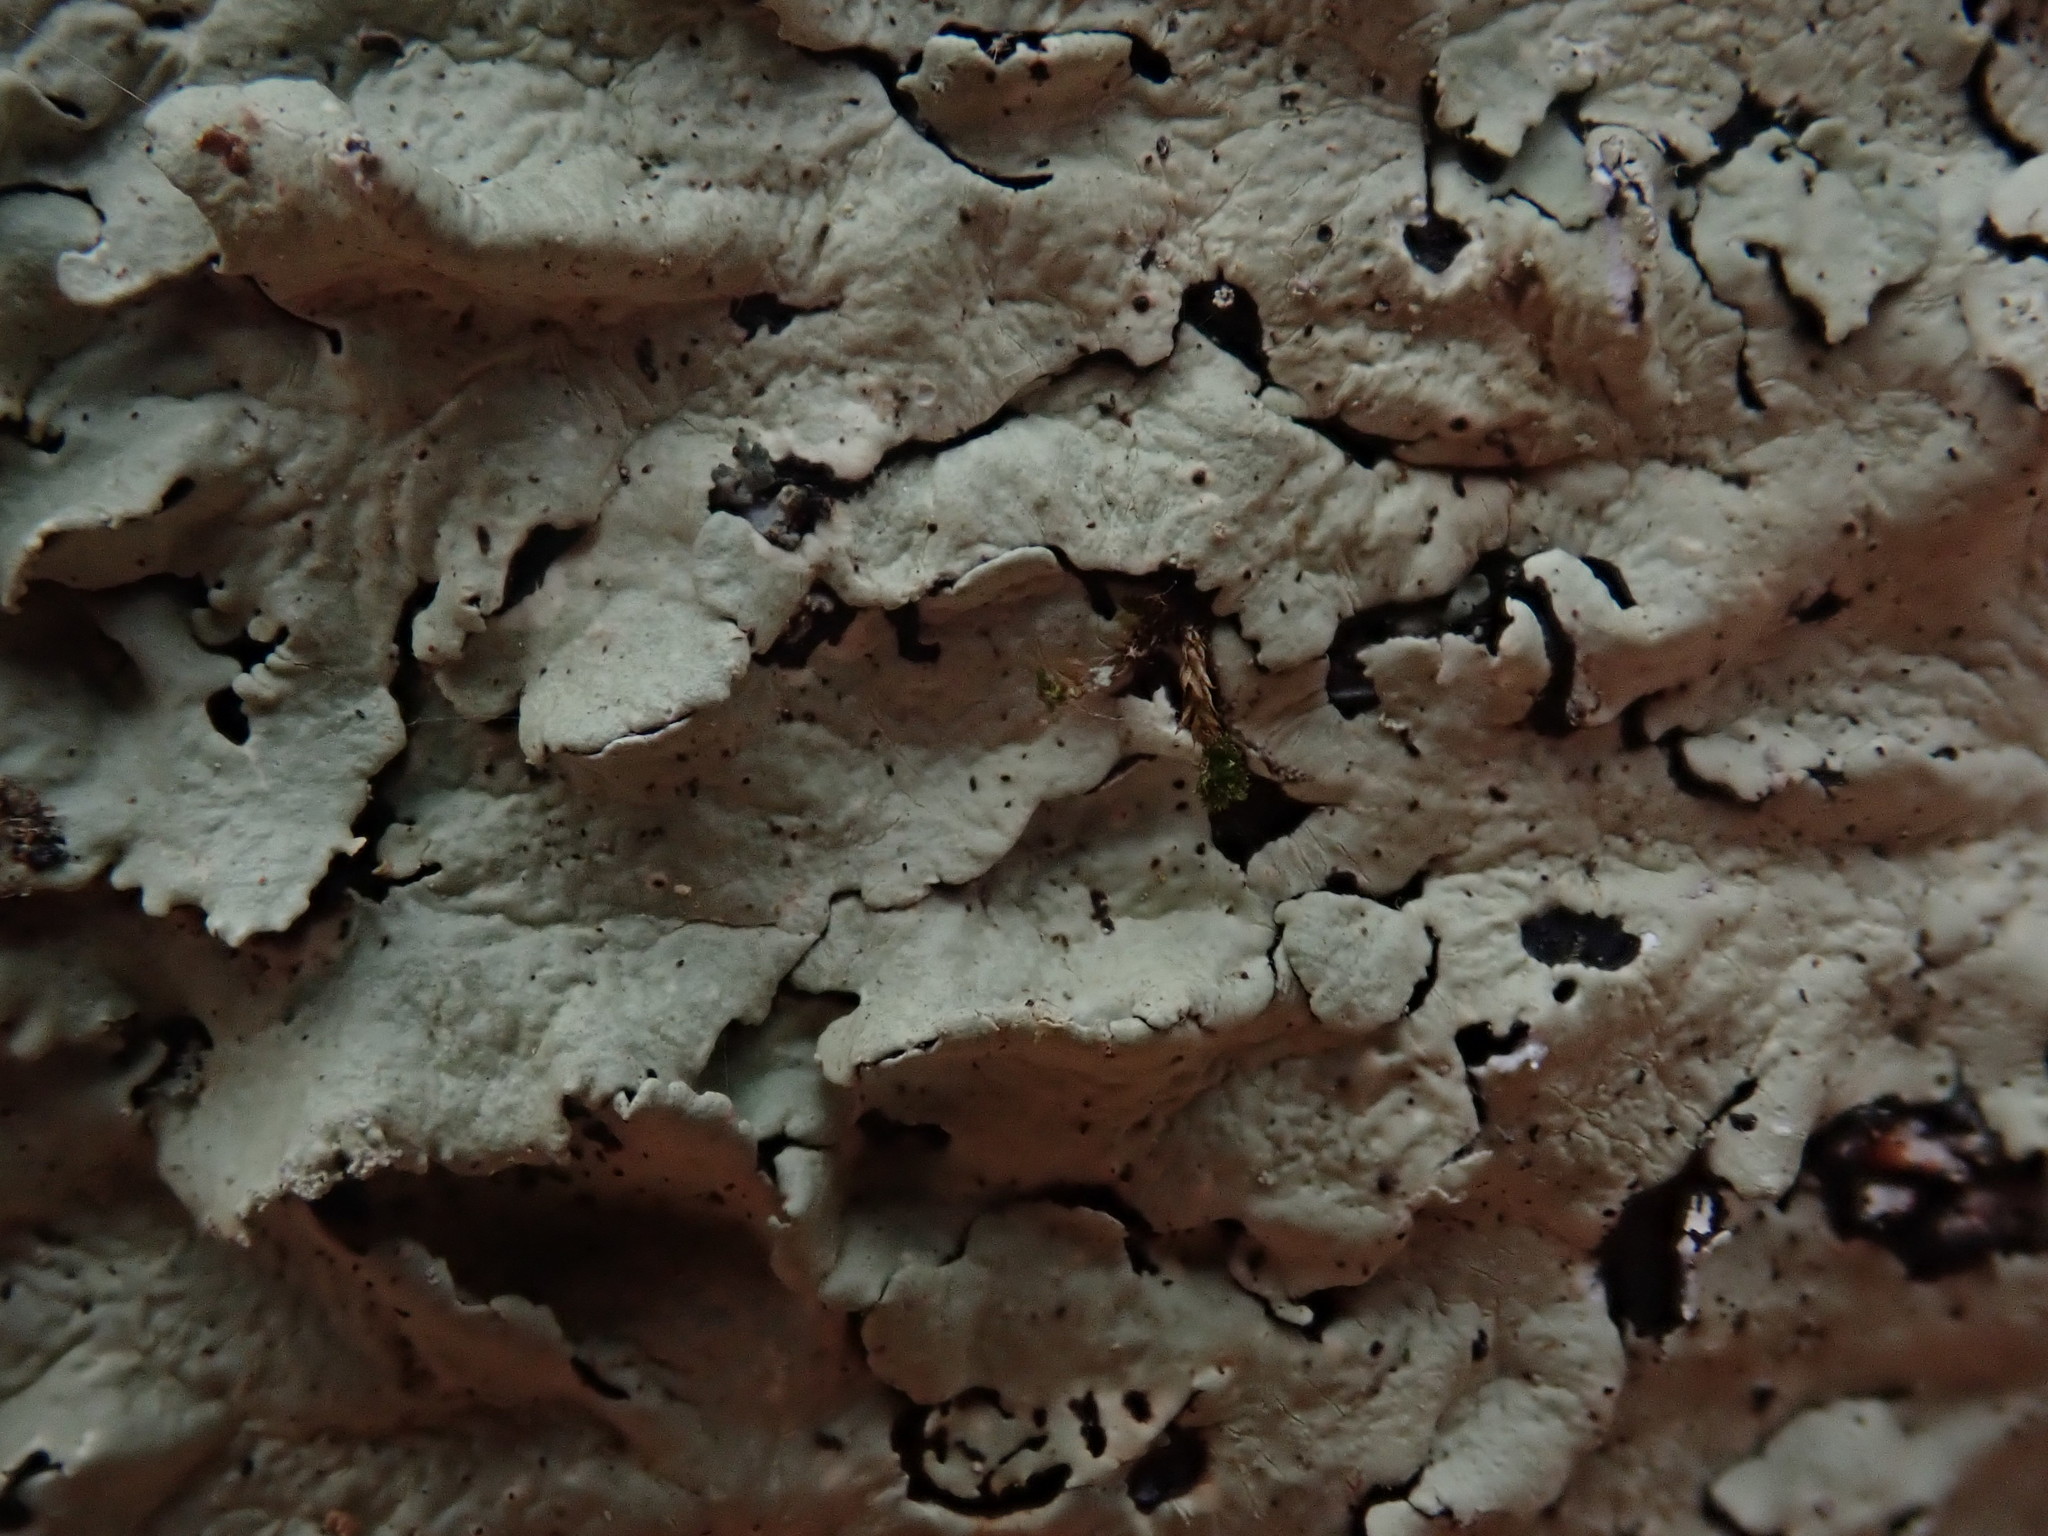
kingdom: Fungi
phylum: Ascomycota
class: Lecanoromycetes
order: Lecanorales
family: Parmeliaceae
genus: Flavoparmelia
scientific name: Flavoparmelia caperata
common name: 40-mile per hour lichen
